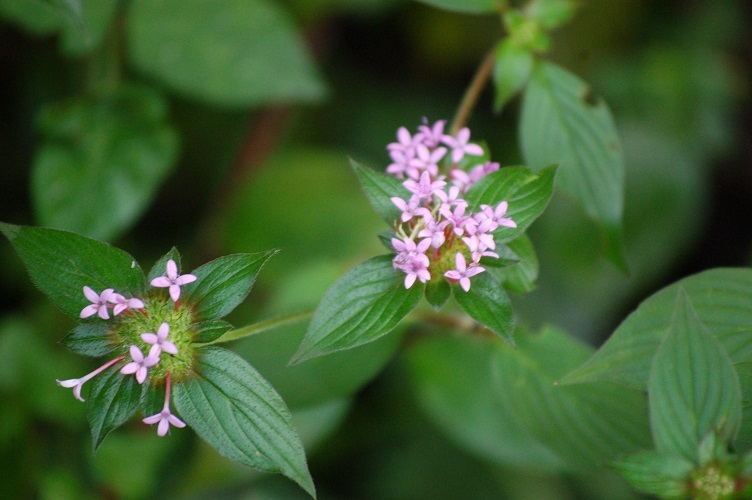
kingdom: Plantae
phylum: Tracheophyta
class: Magnoliopsida
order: Gentianales
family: Rubiaceae
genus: Crusea
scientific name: Crusea longiflora
